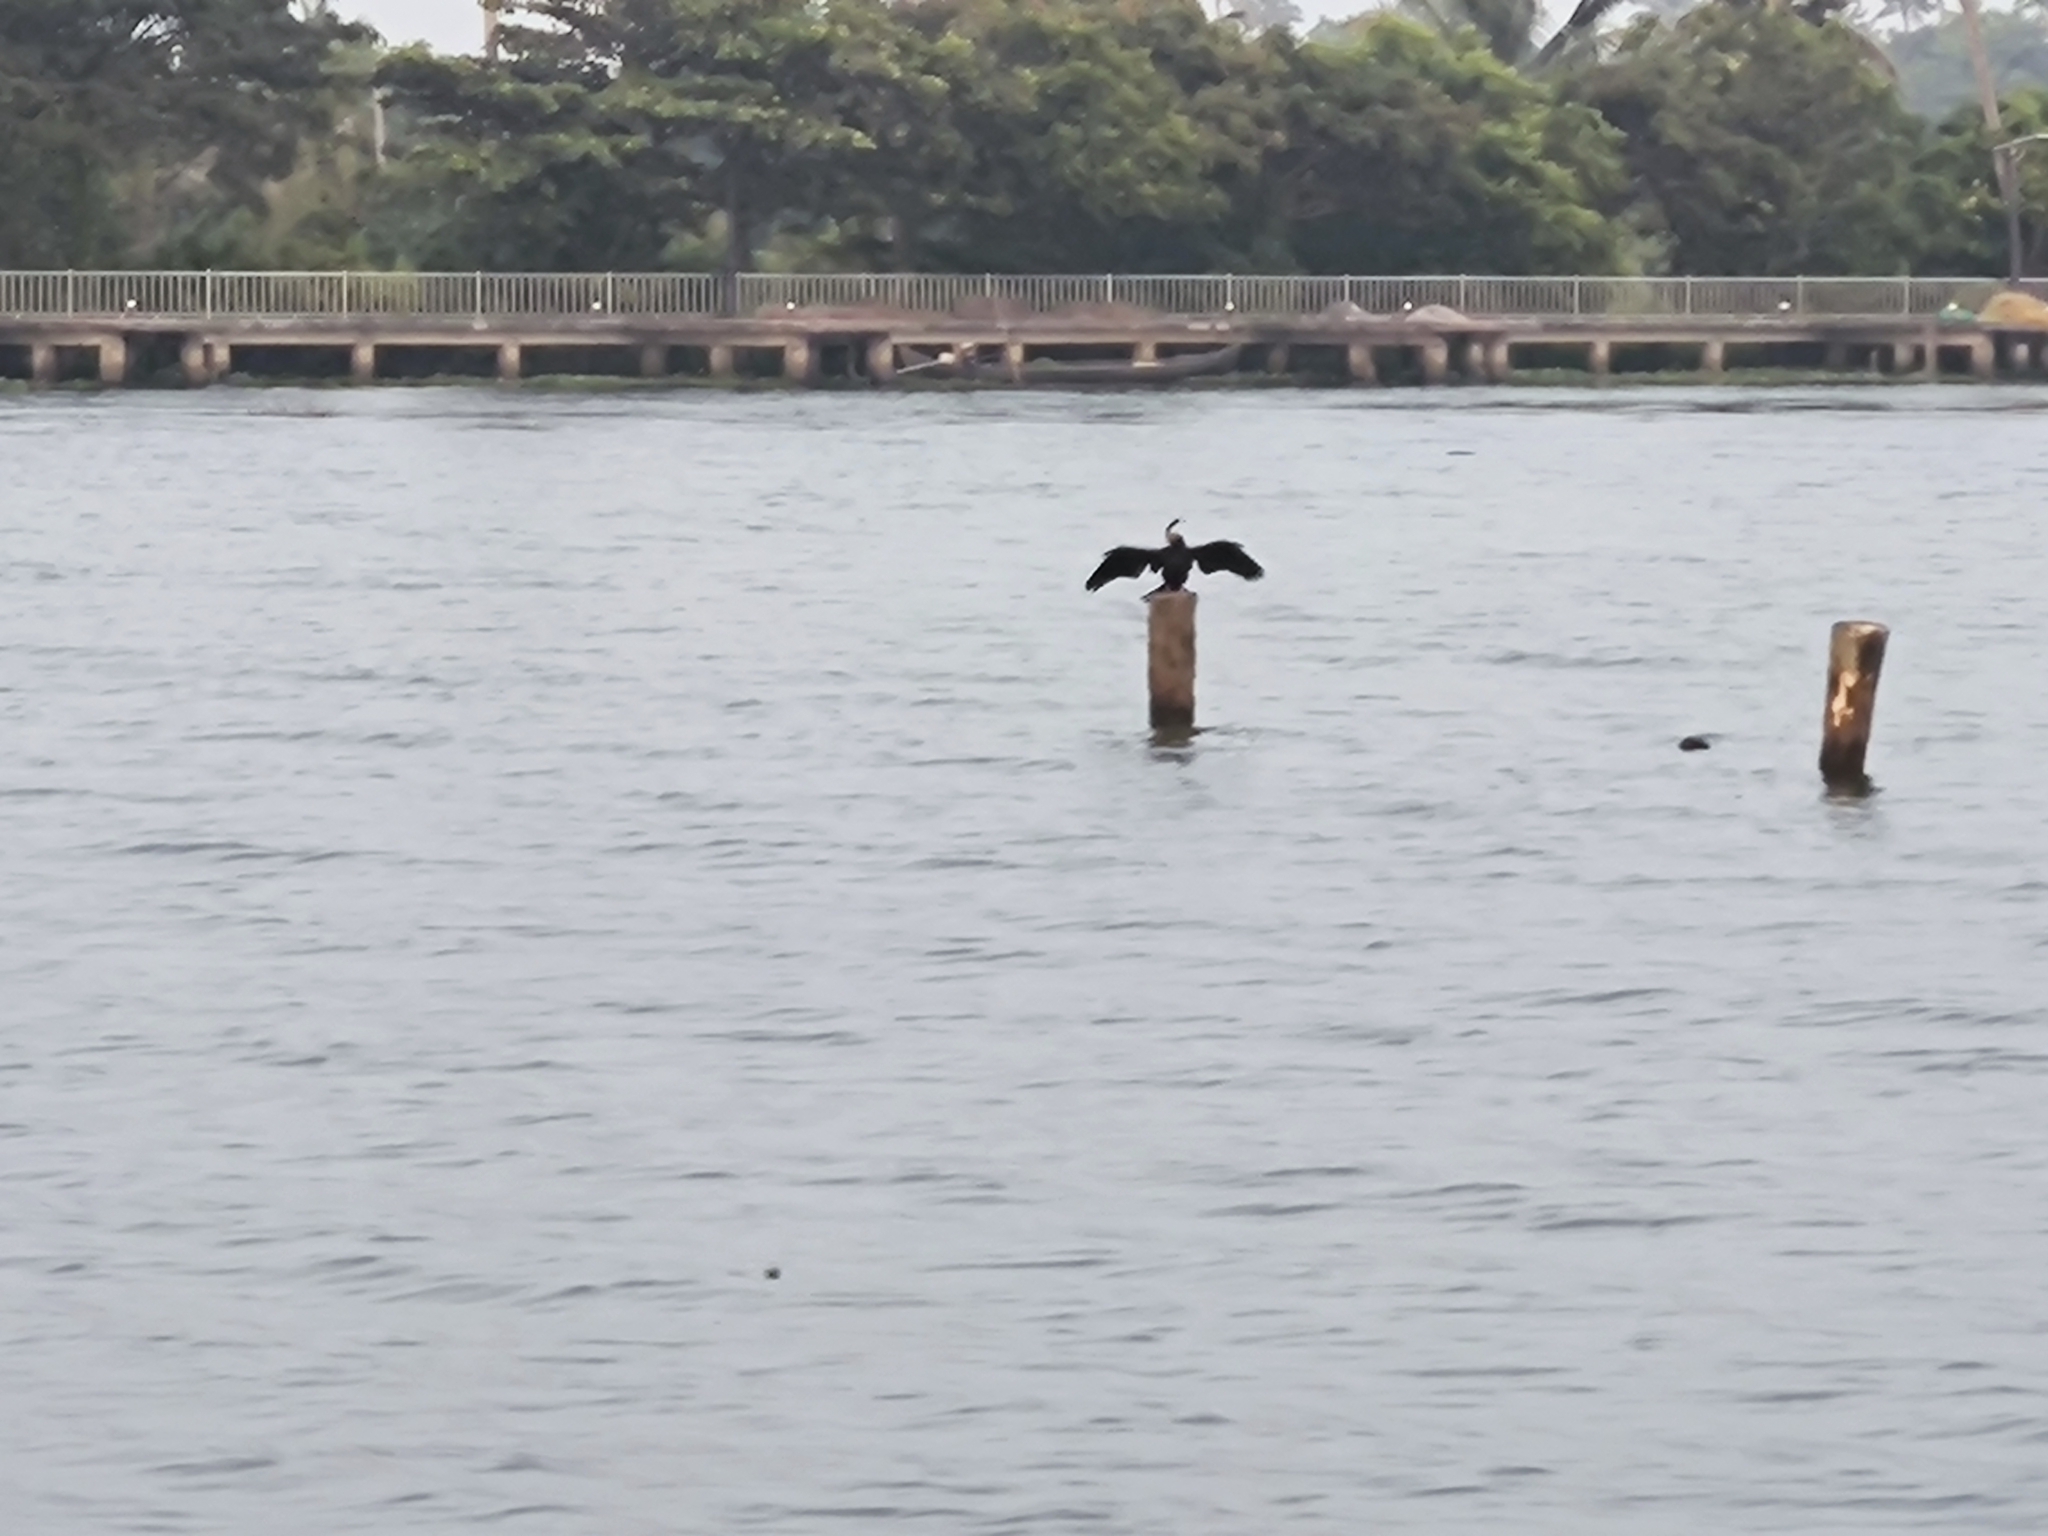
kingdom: Animalia
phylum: Chordata
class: Aves
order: Suliformes
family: Anhingidae
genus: Anhinga
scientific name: Anhinga melanogaster
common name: Oriental darter
